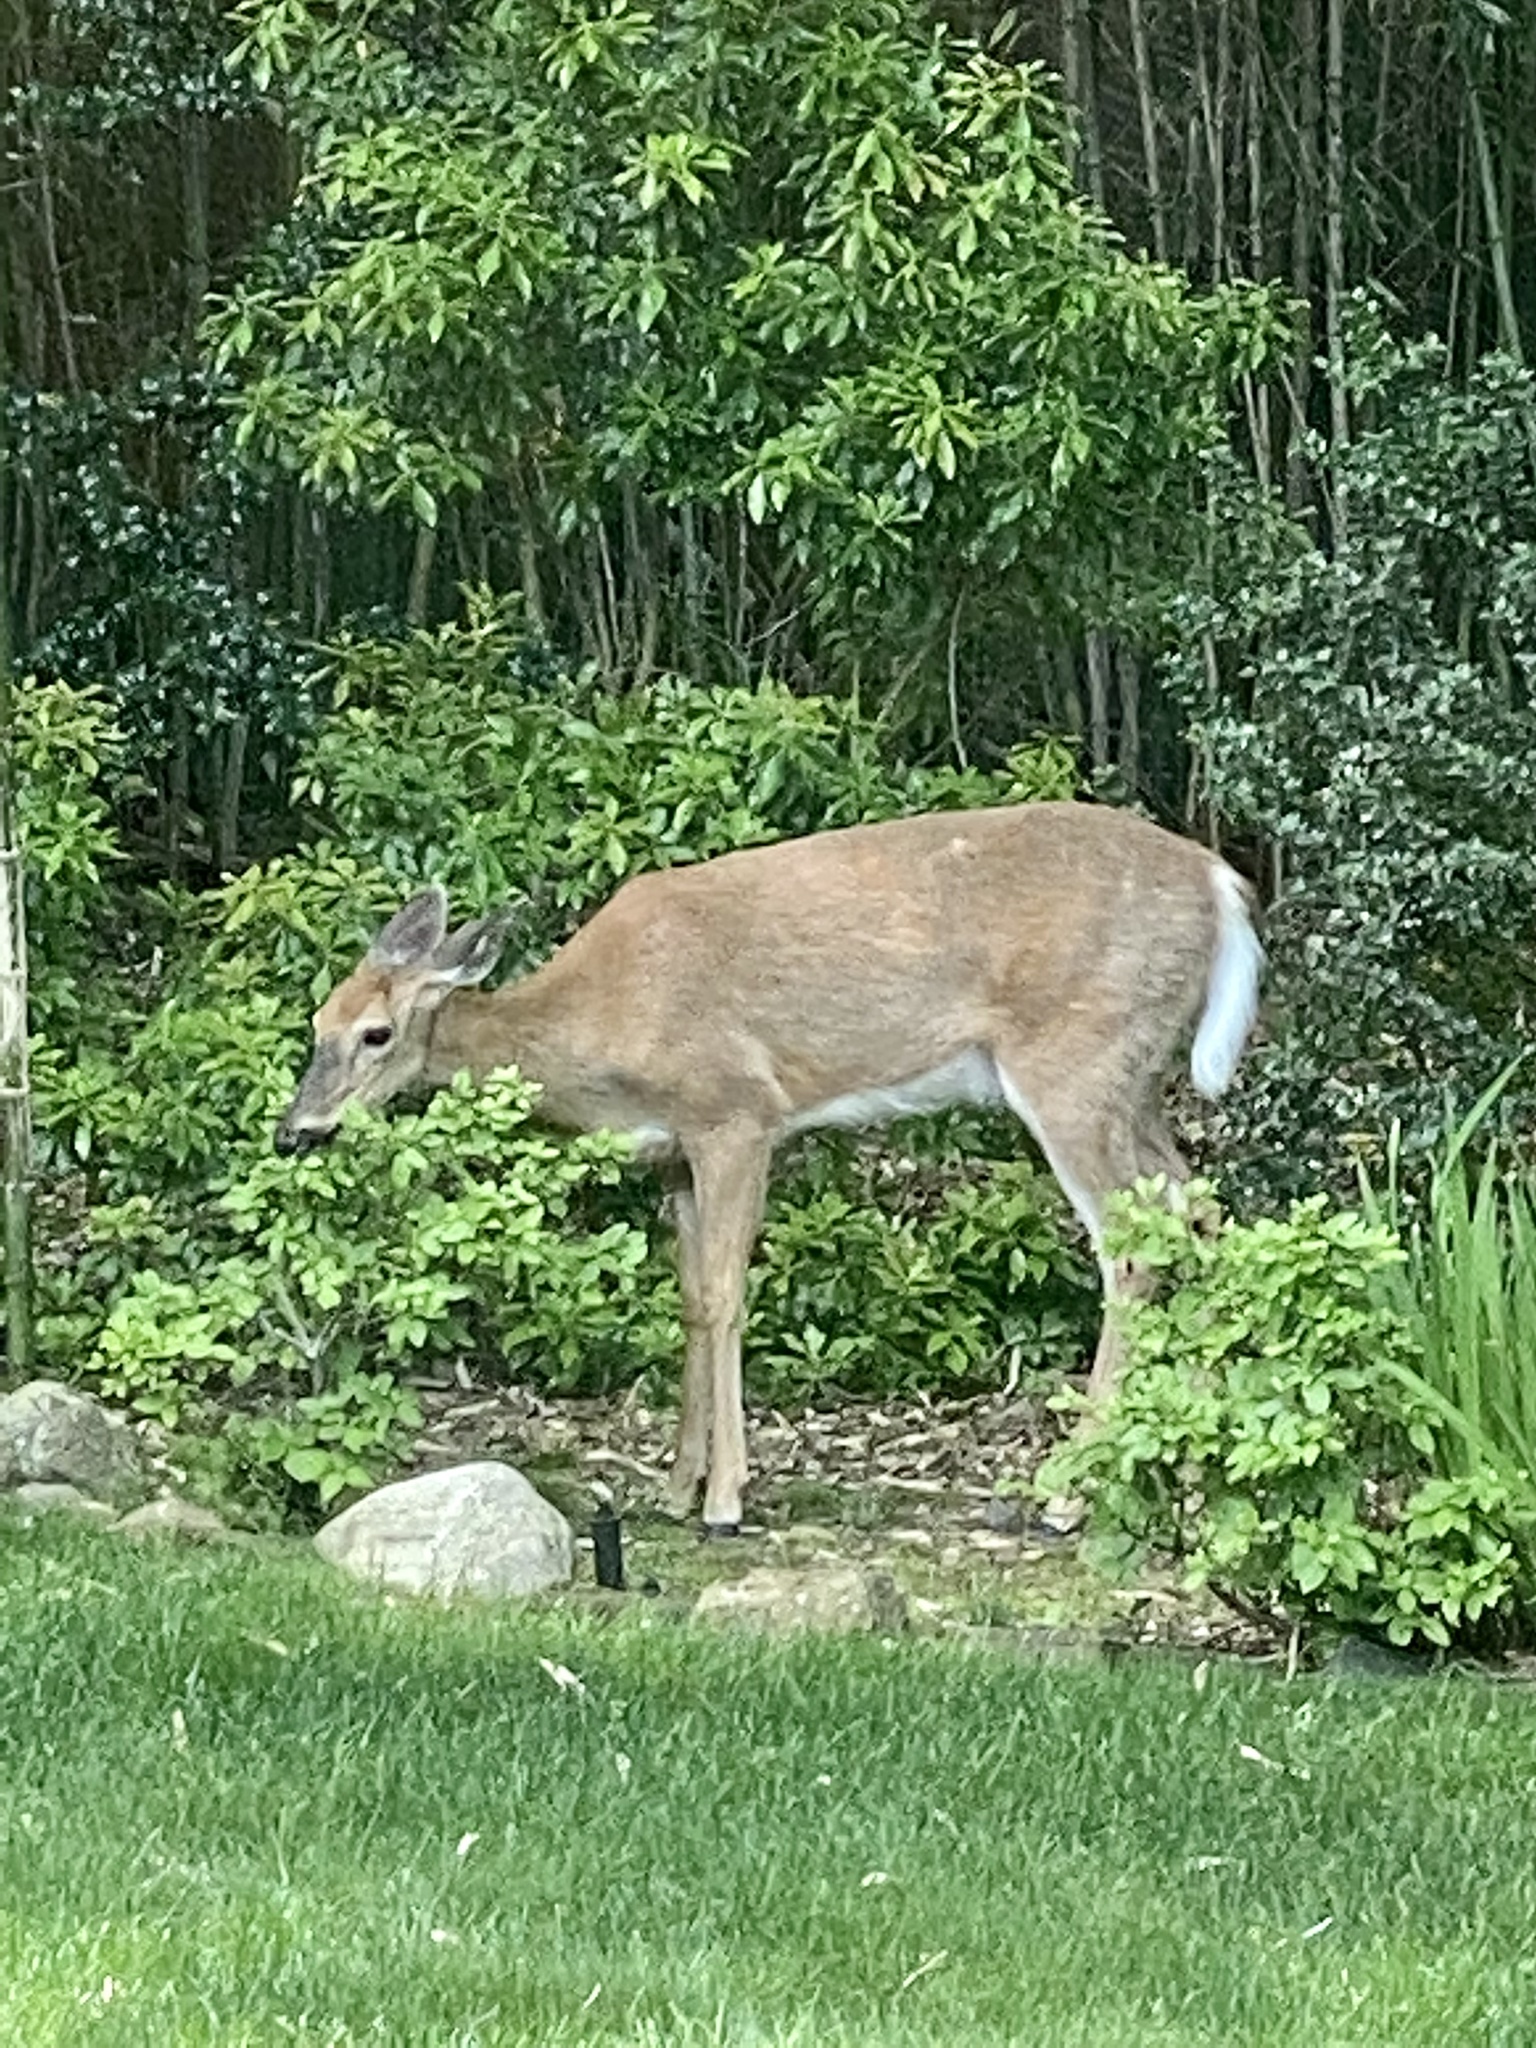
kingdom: Animalia
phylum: Chordata
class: Mammalia
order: Artiodactyla
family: Cervidae
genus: Odocoileus
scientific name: Odocoileus virginianus
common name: White-tailed deer
